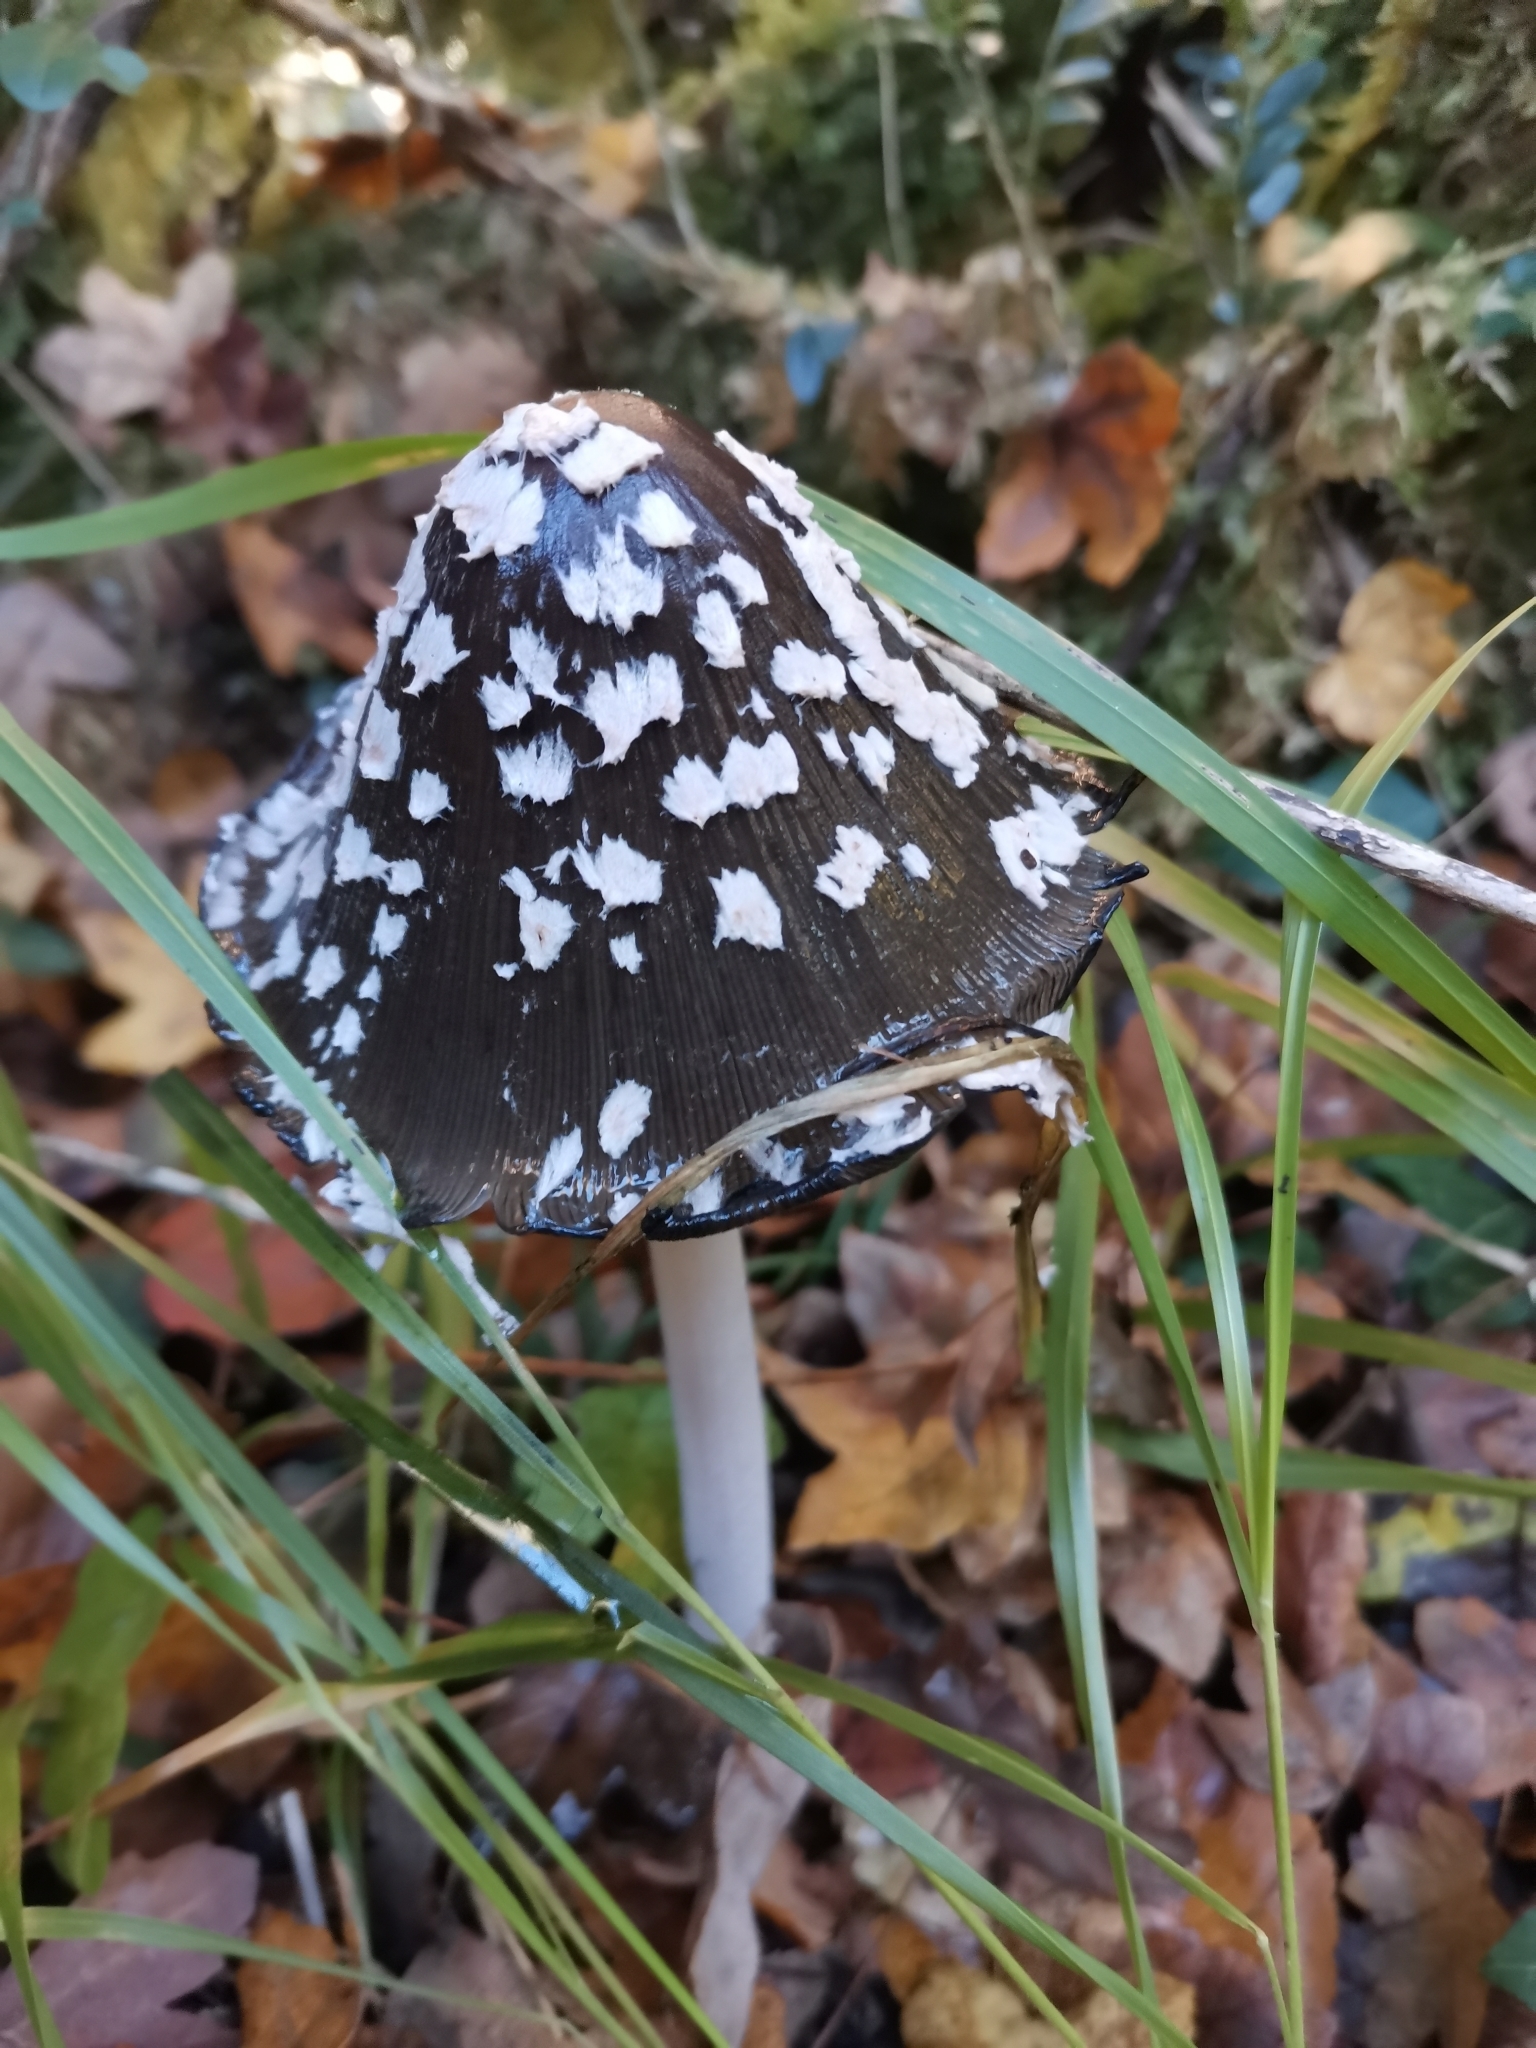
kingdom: Fungi
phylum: Basidiomycota
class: Agaricomycetes
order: Agaricales
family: Psathyrellaceae
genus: Coprinopsis
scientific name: Coprinopsis picacea
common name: Magpie inkcap
